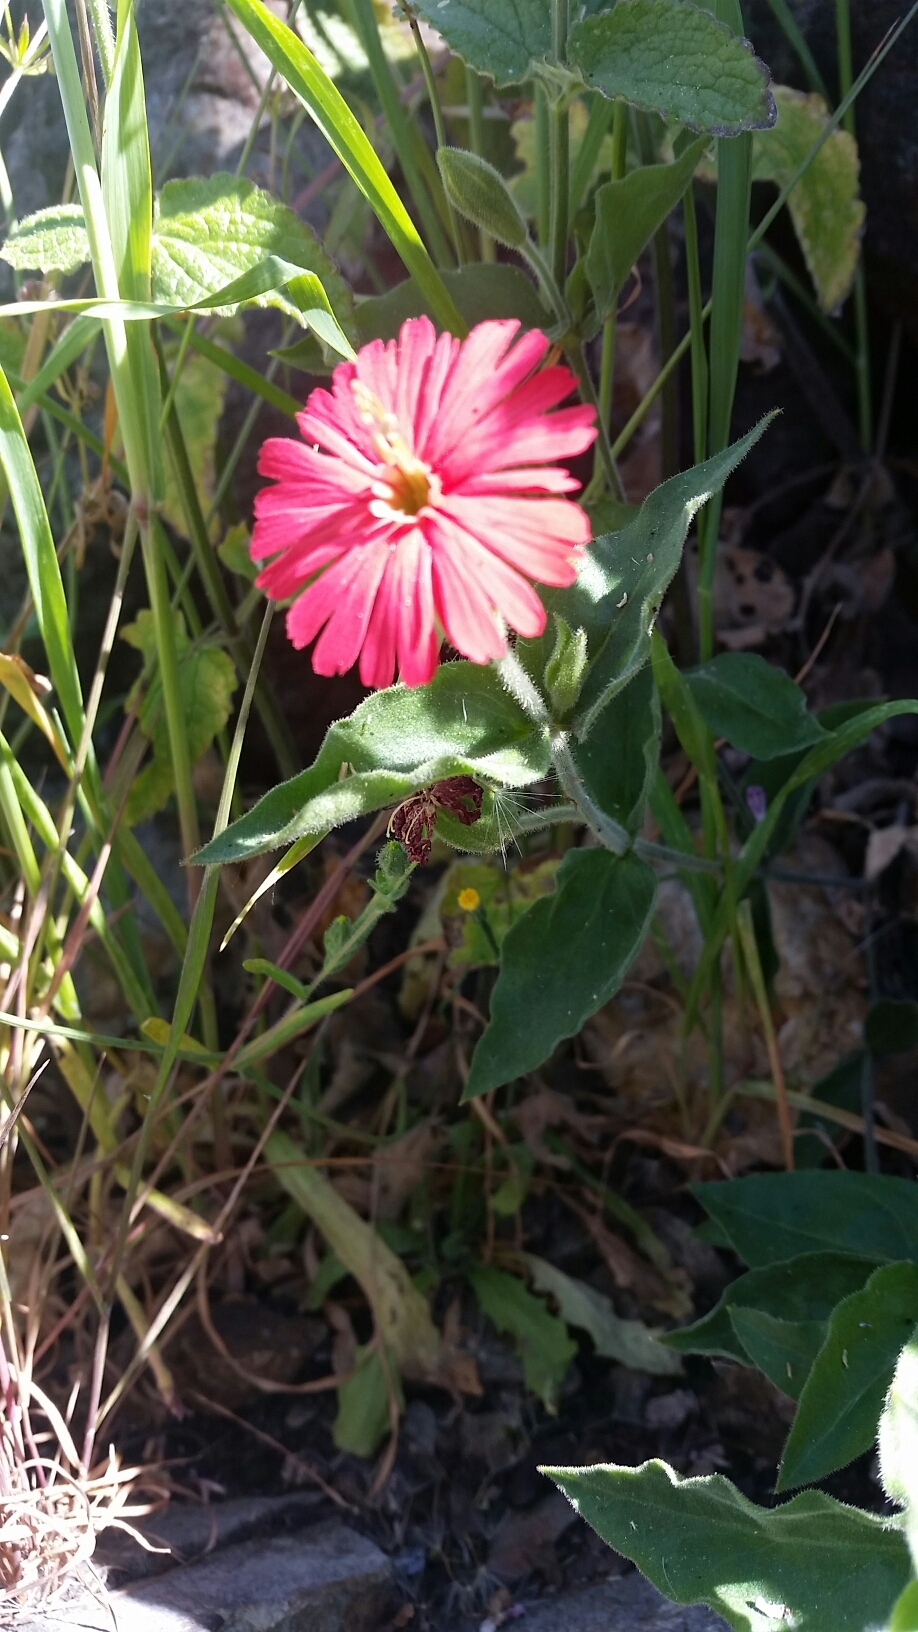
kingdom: Plantae
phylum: Tracheophyta
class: Magnoliopsida
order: Caryophyllales
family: Caryophyllaceae
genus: Silene
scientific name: Silene laciniata
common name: Indian-pink
